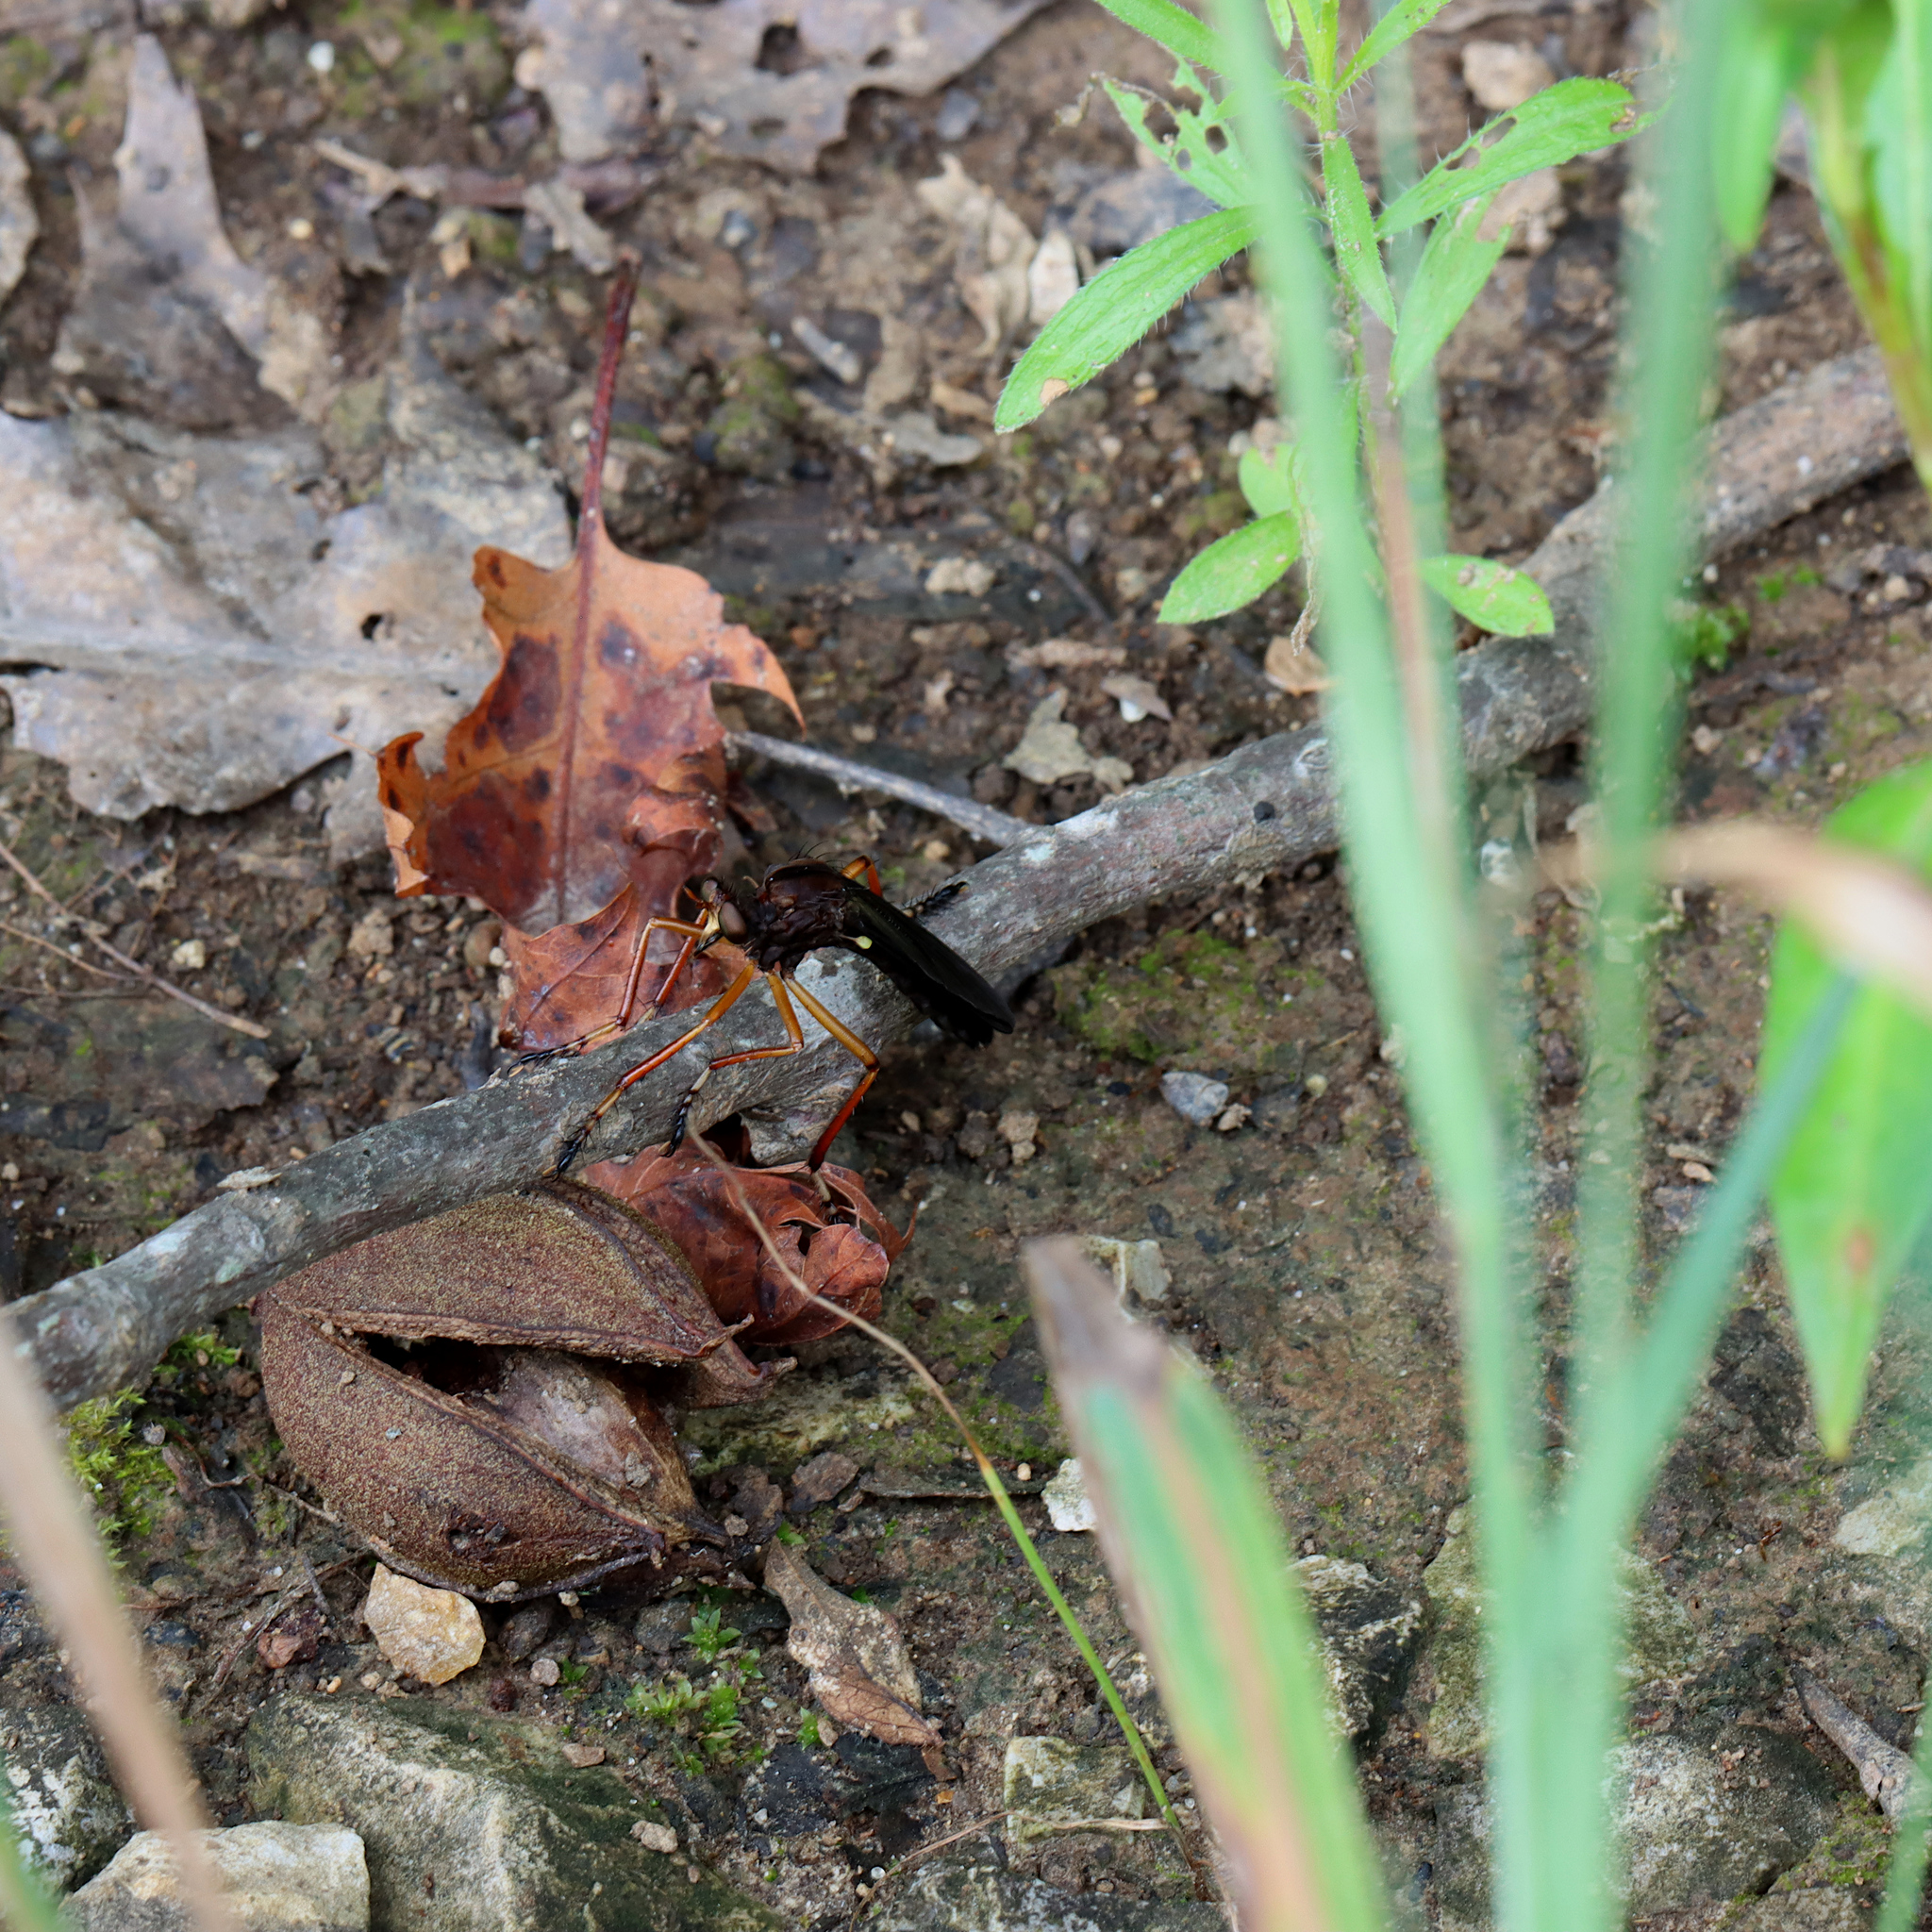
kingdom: Animalia
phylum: Arthropoda
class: Insecta
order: Diptera
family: Asilidae
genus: Diogmites
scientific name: Diogmites platypterus
